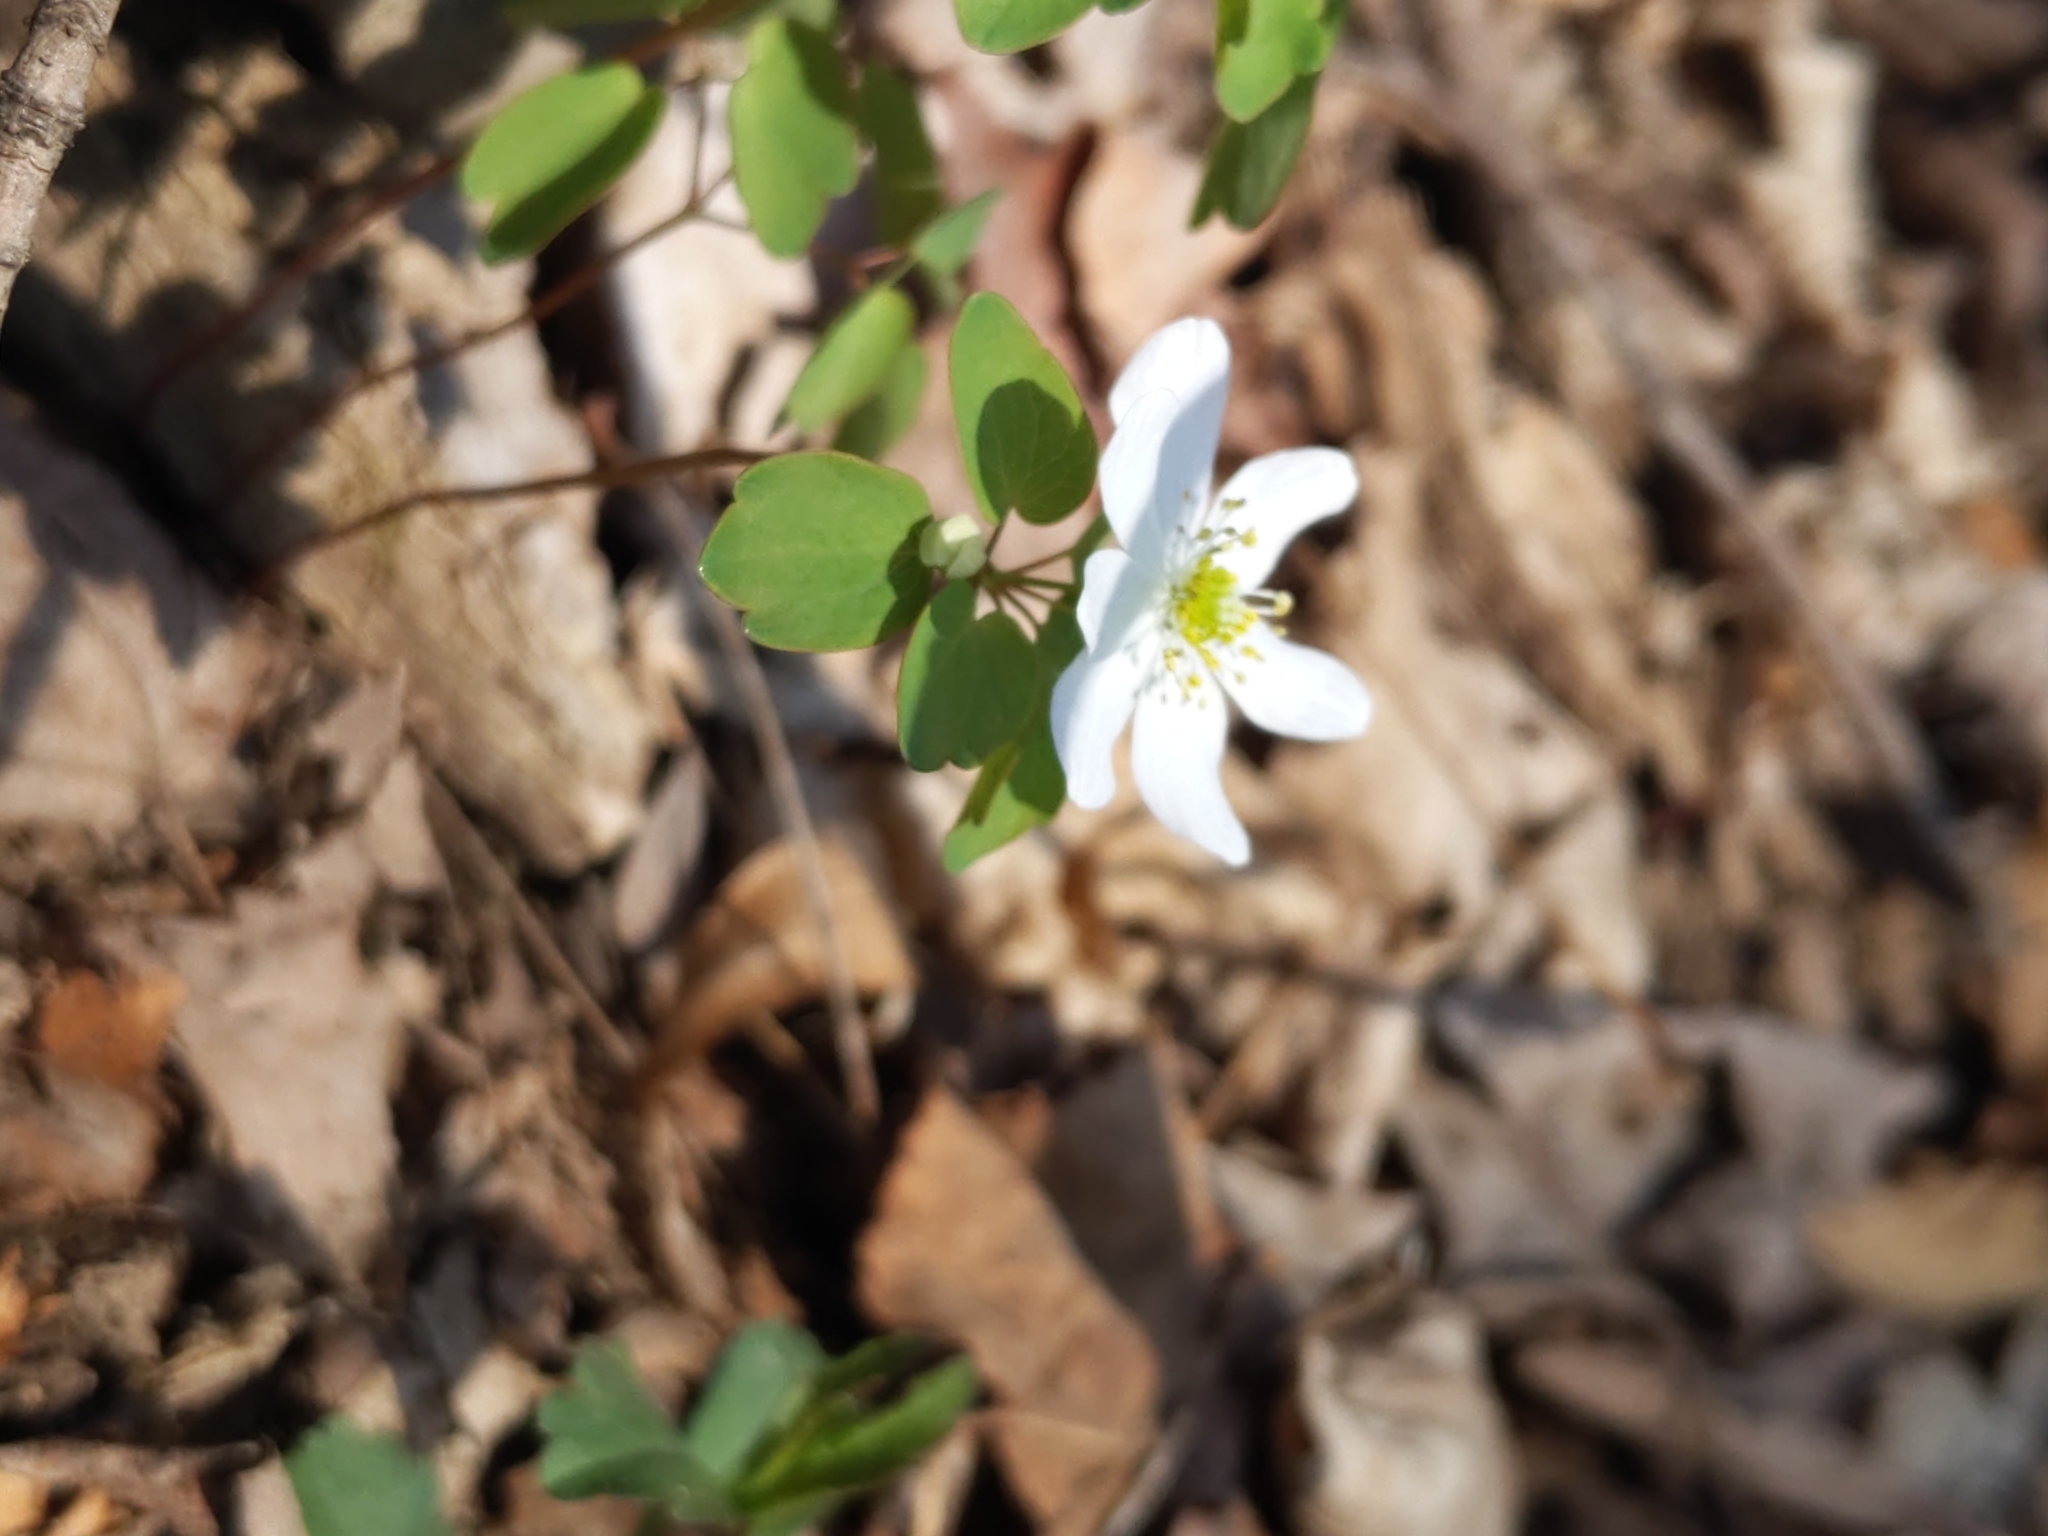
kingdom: Plantae
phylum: Tracheophyta
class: Magnoliopsida
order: Ranunculales
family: Ranunculaceae
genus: Thalictrum
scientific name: Thalictrum thalictroides
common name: Rue-anemone
